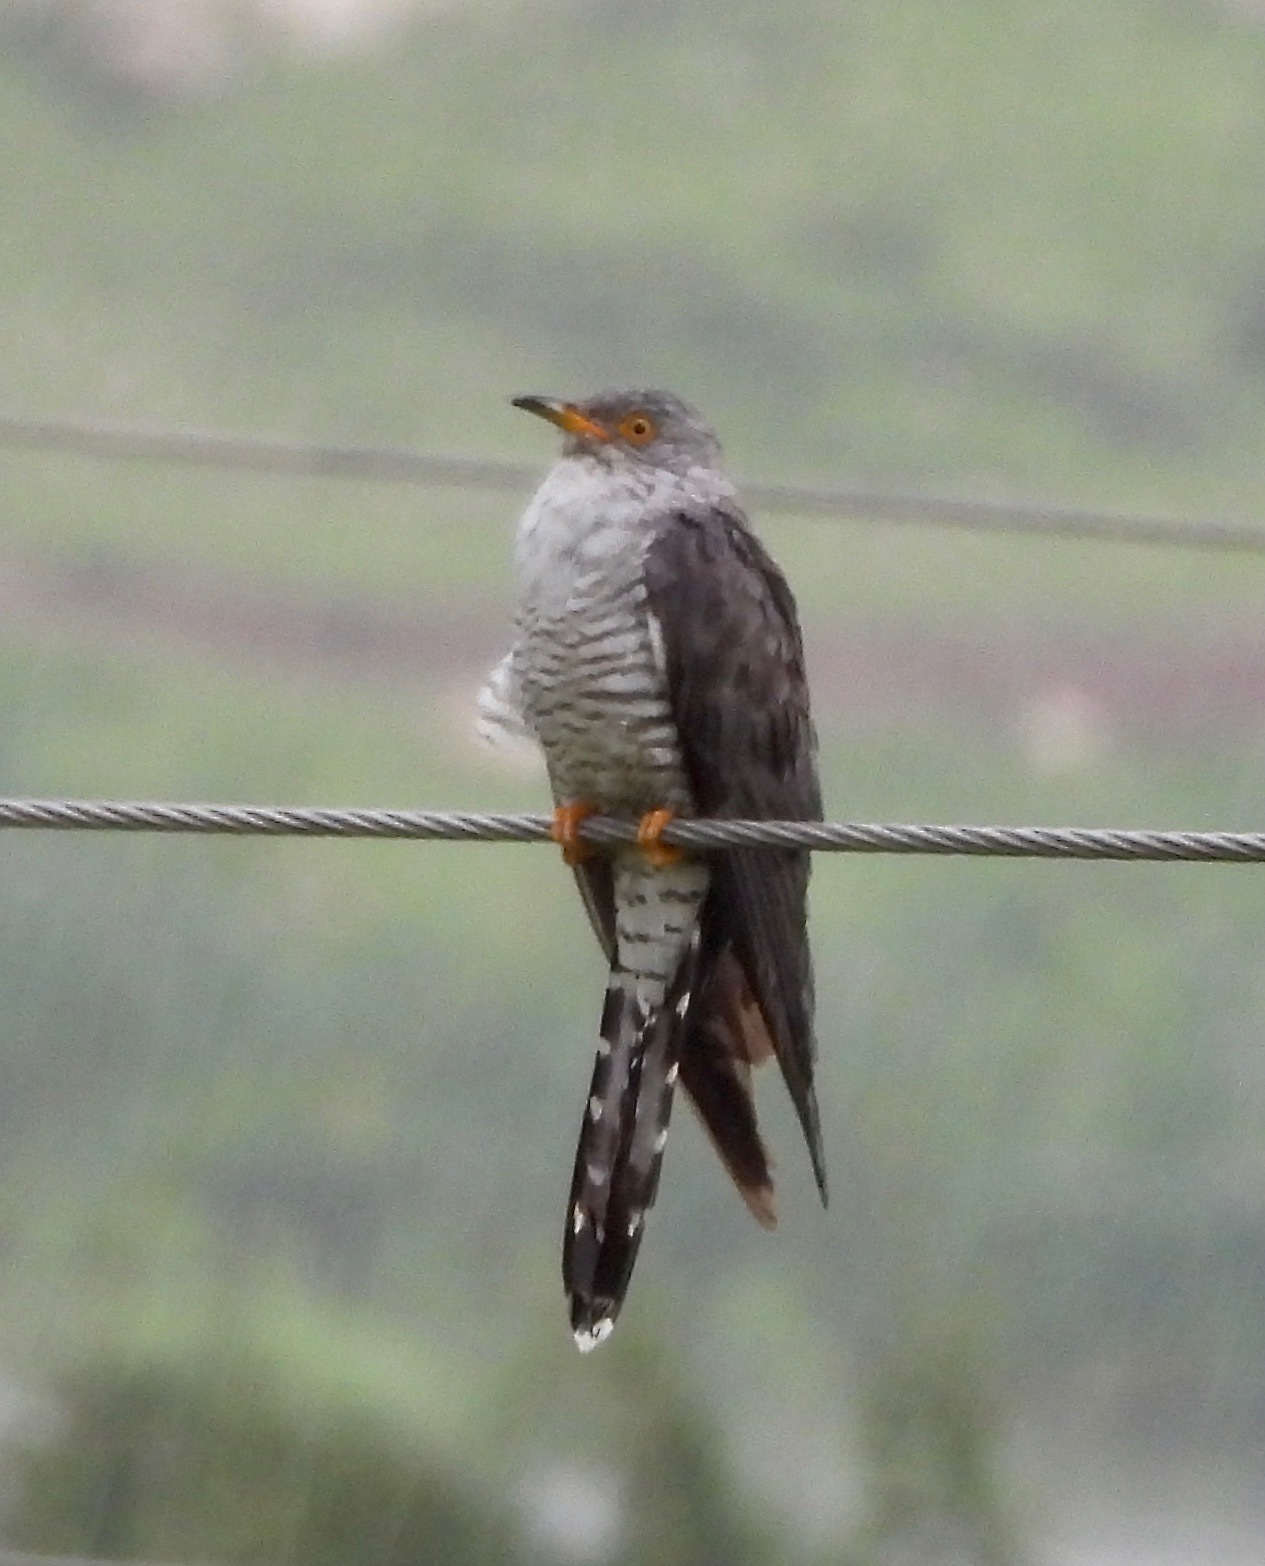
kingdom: Animalia
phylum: Chordata
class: Aves
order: Cuculiformes
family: Cuculidae
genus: Cuculus
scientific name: Cuculus canorus
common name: Common cuckoo
